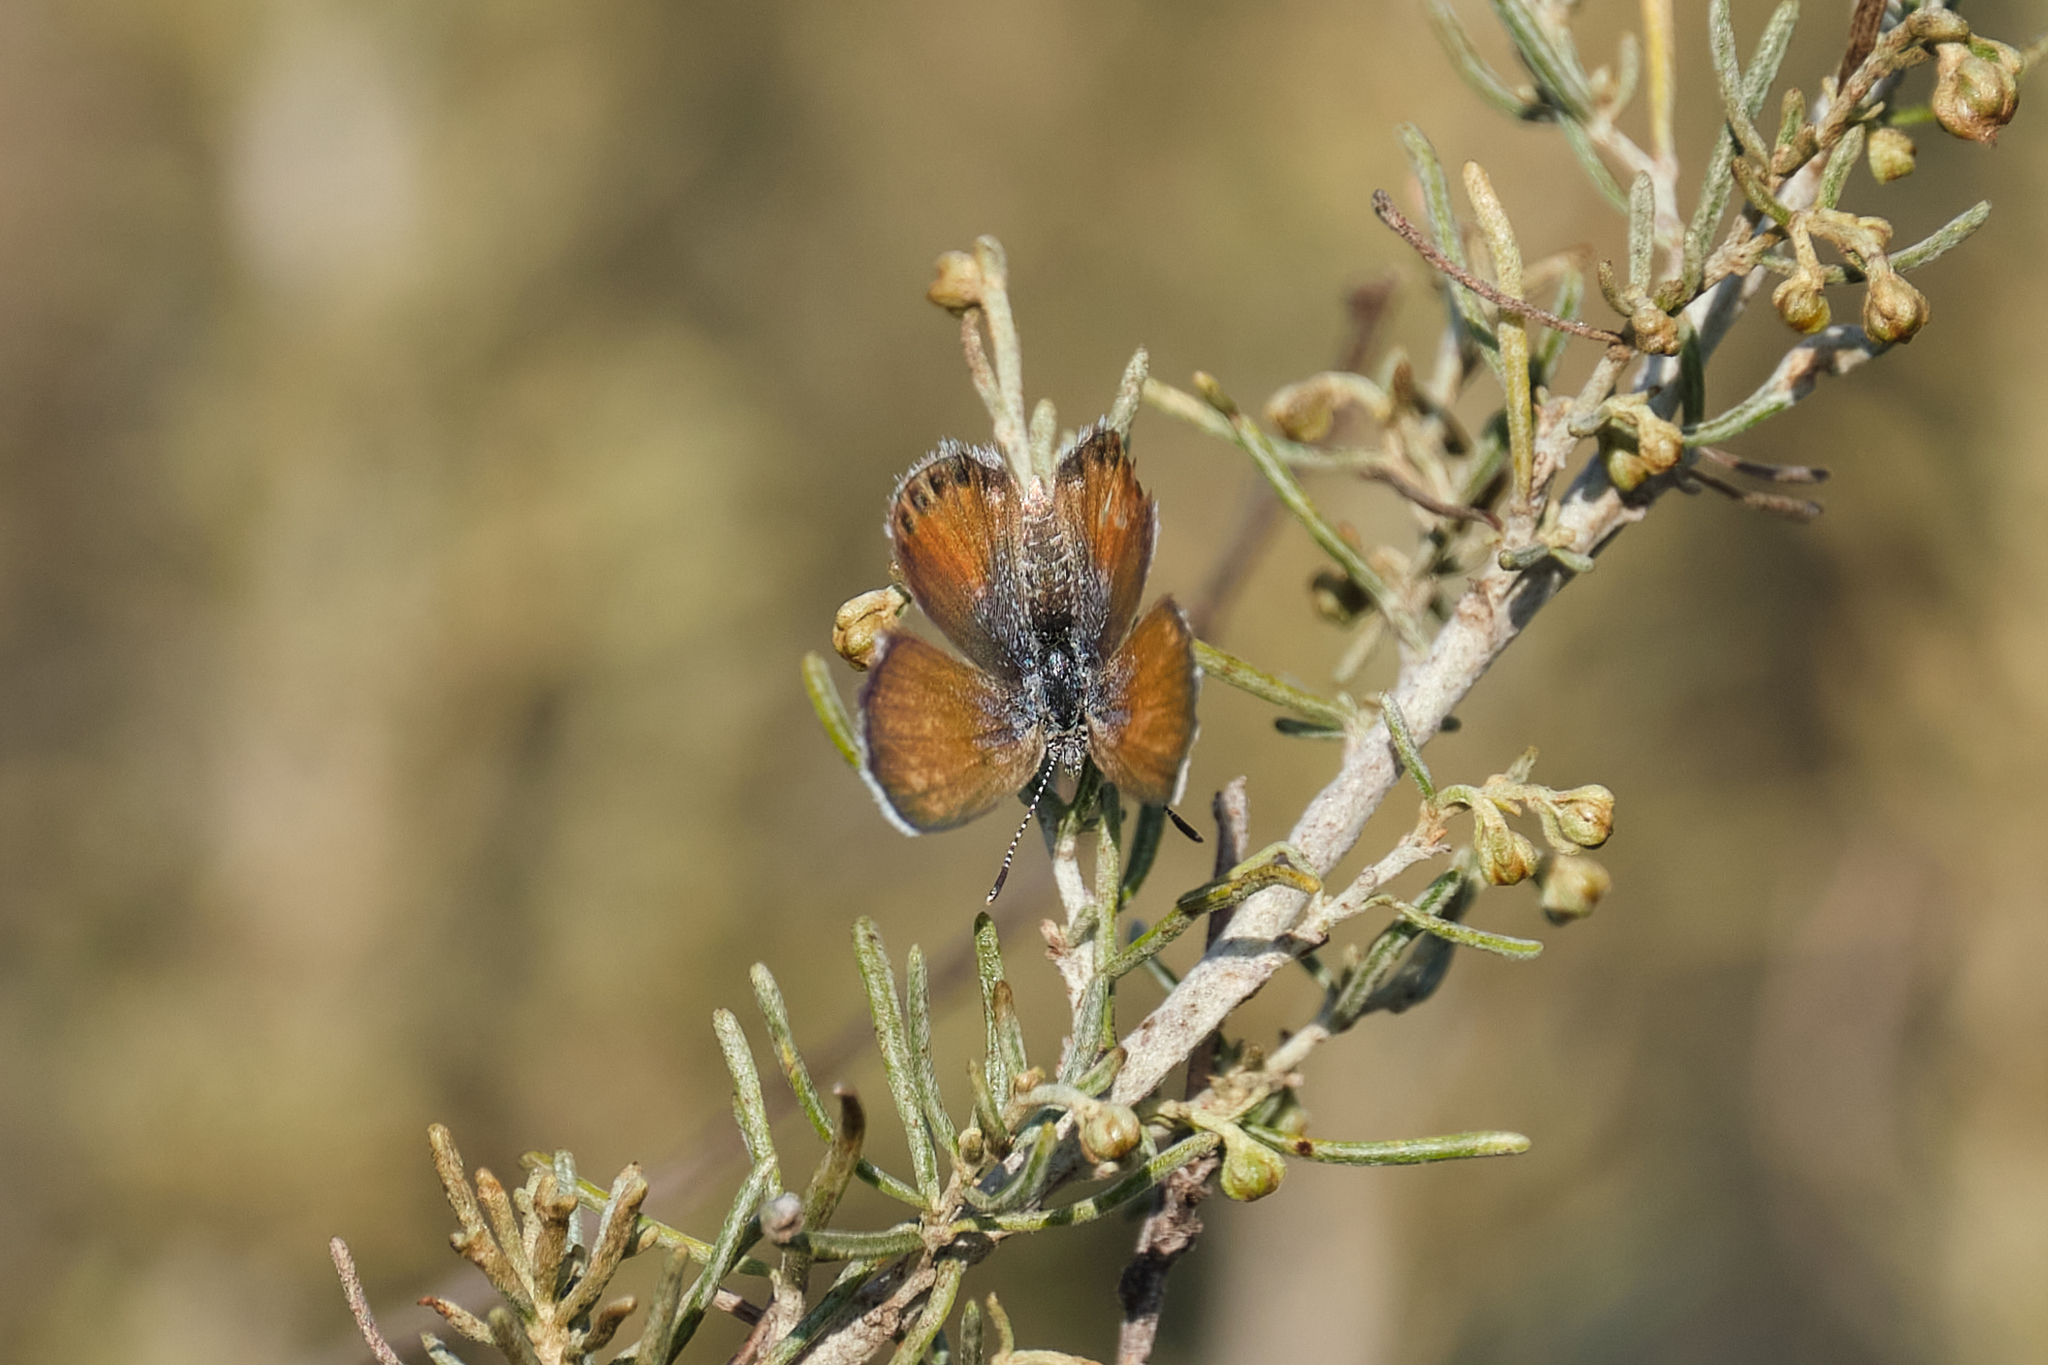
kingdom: Animalia
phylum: Arthropoda
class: Insecta
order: Lepidoptera
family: Lycaenidae
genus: Brephidium
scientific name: Brephidium exilis
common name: Pygmy blue
